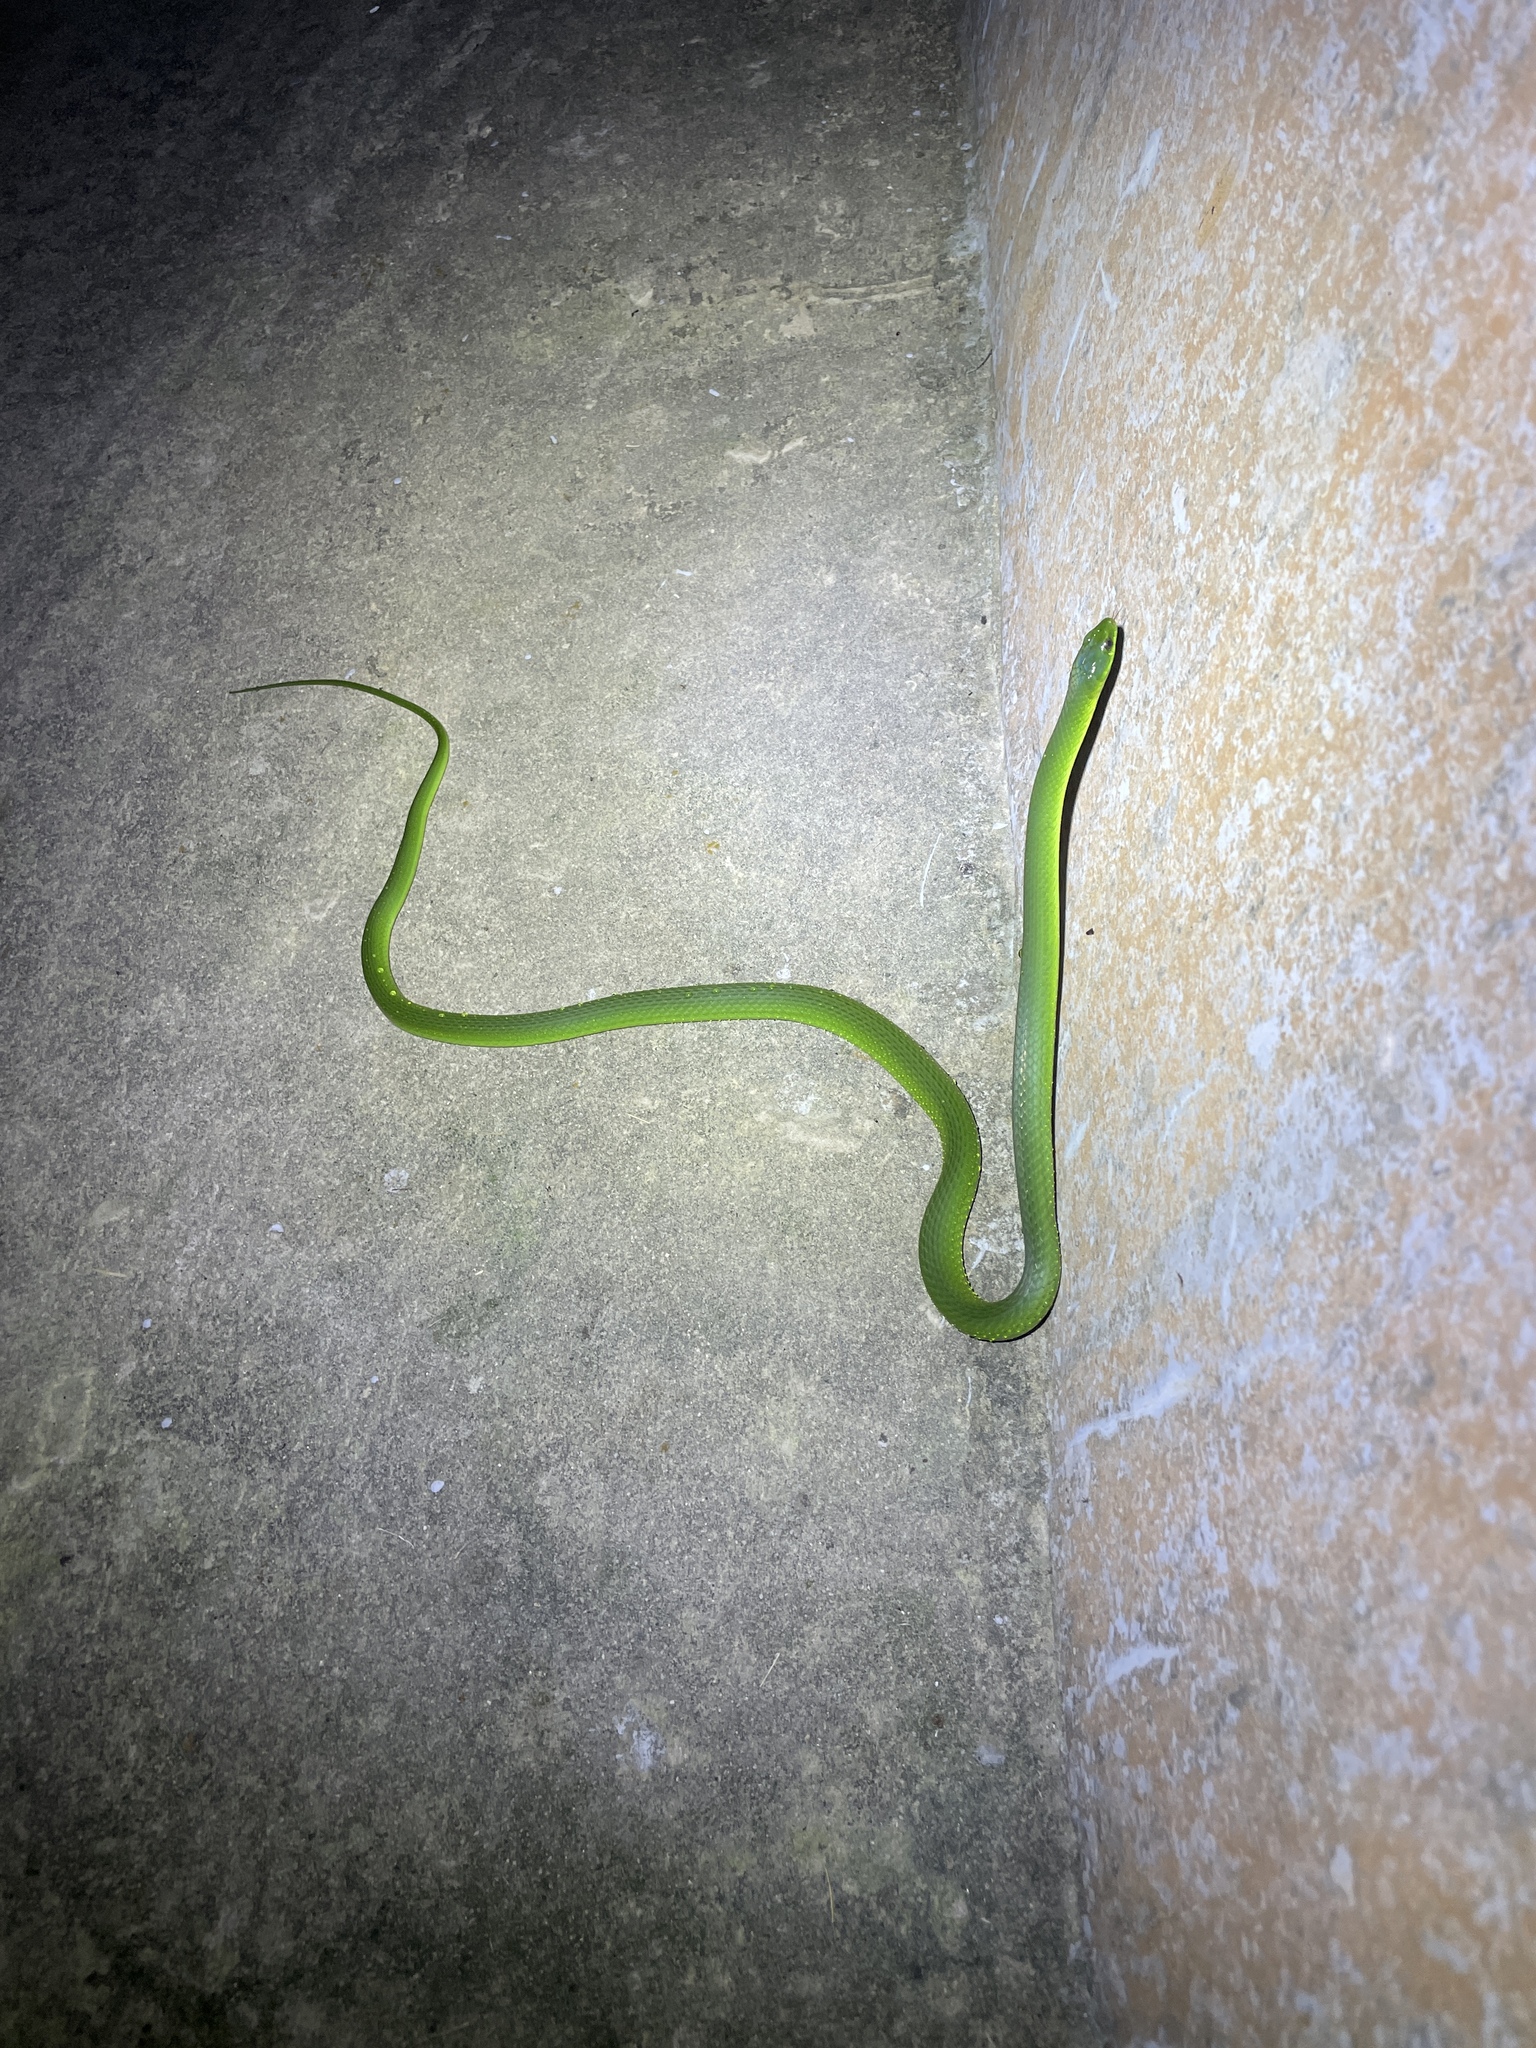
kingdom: Animalia
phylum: Chordata
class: Squamata
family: Colubridae
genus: Ptyas
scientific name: Ptyas major
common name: Chinese green snake
